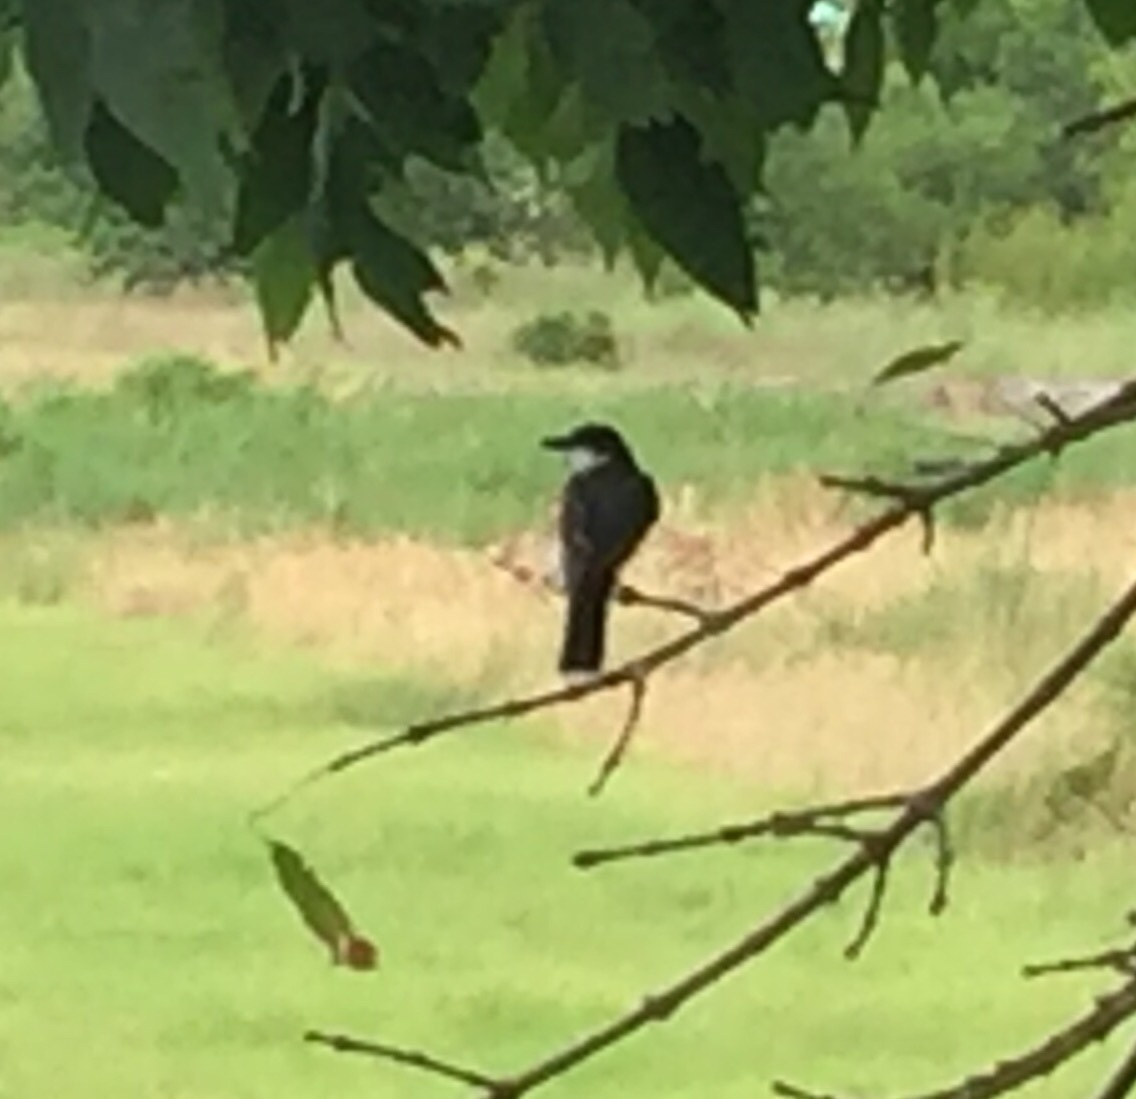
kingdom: Animalia
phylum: Chordata
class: Aves
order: Passeriformes
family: Tyrannidae
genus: Tyrannus
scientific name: Tyrannus tyrannus
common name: Eastern kingbird
